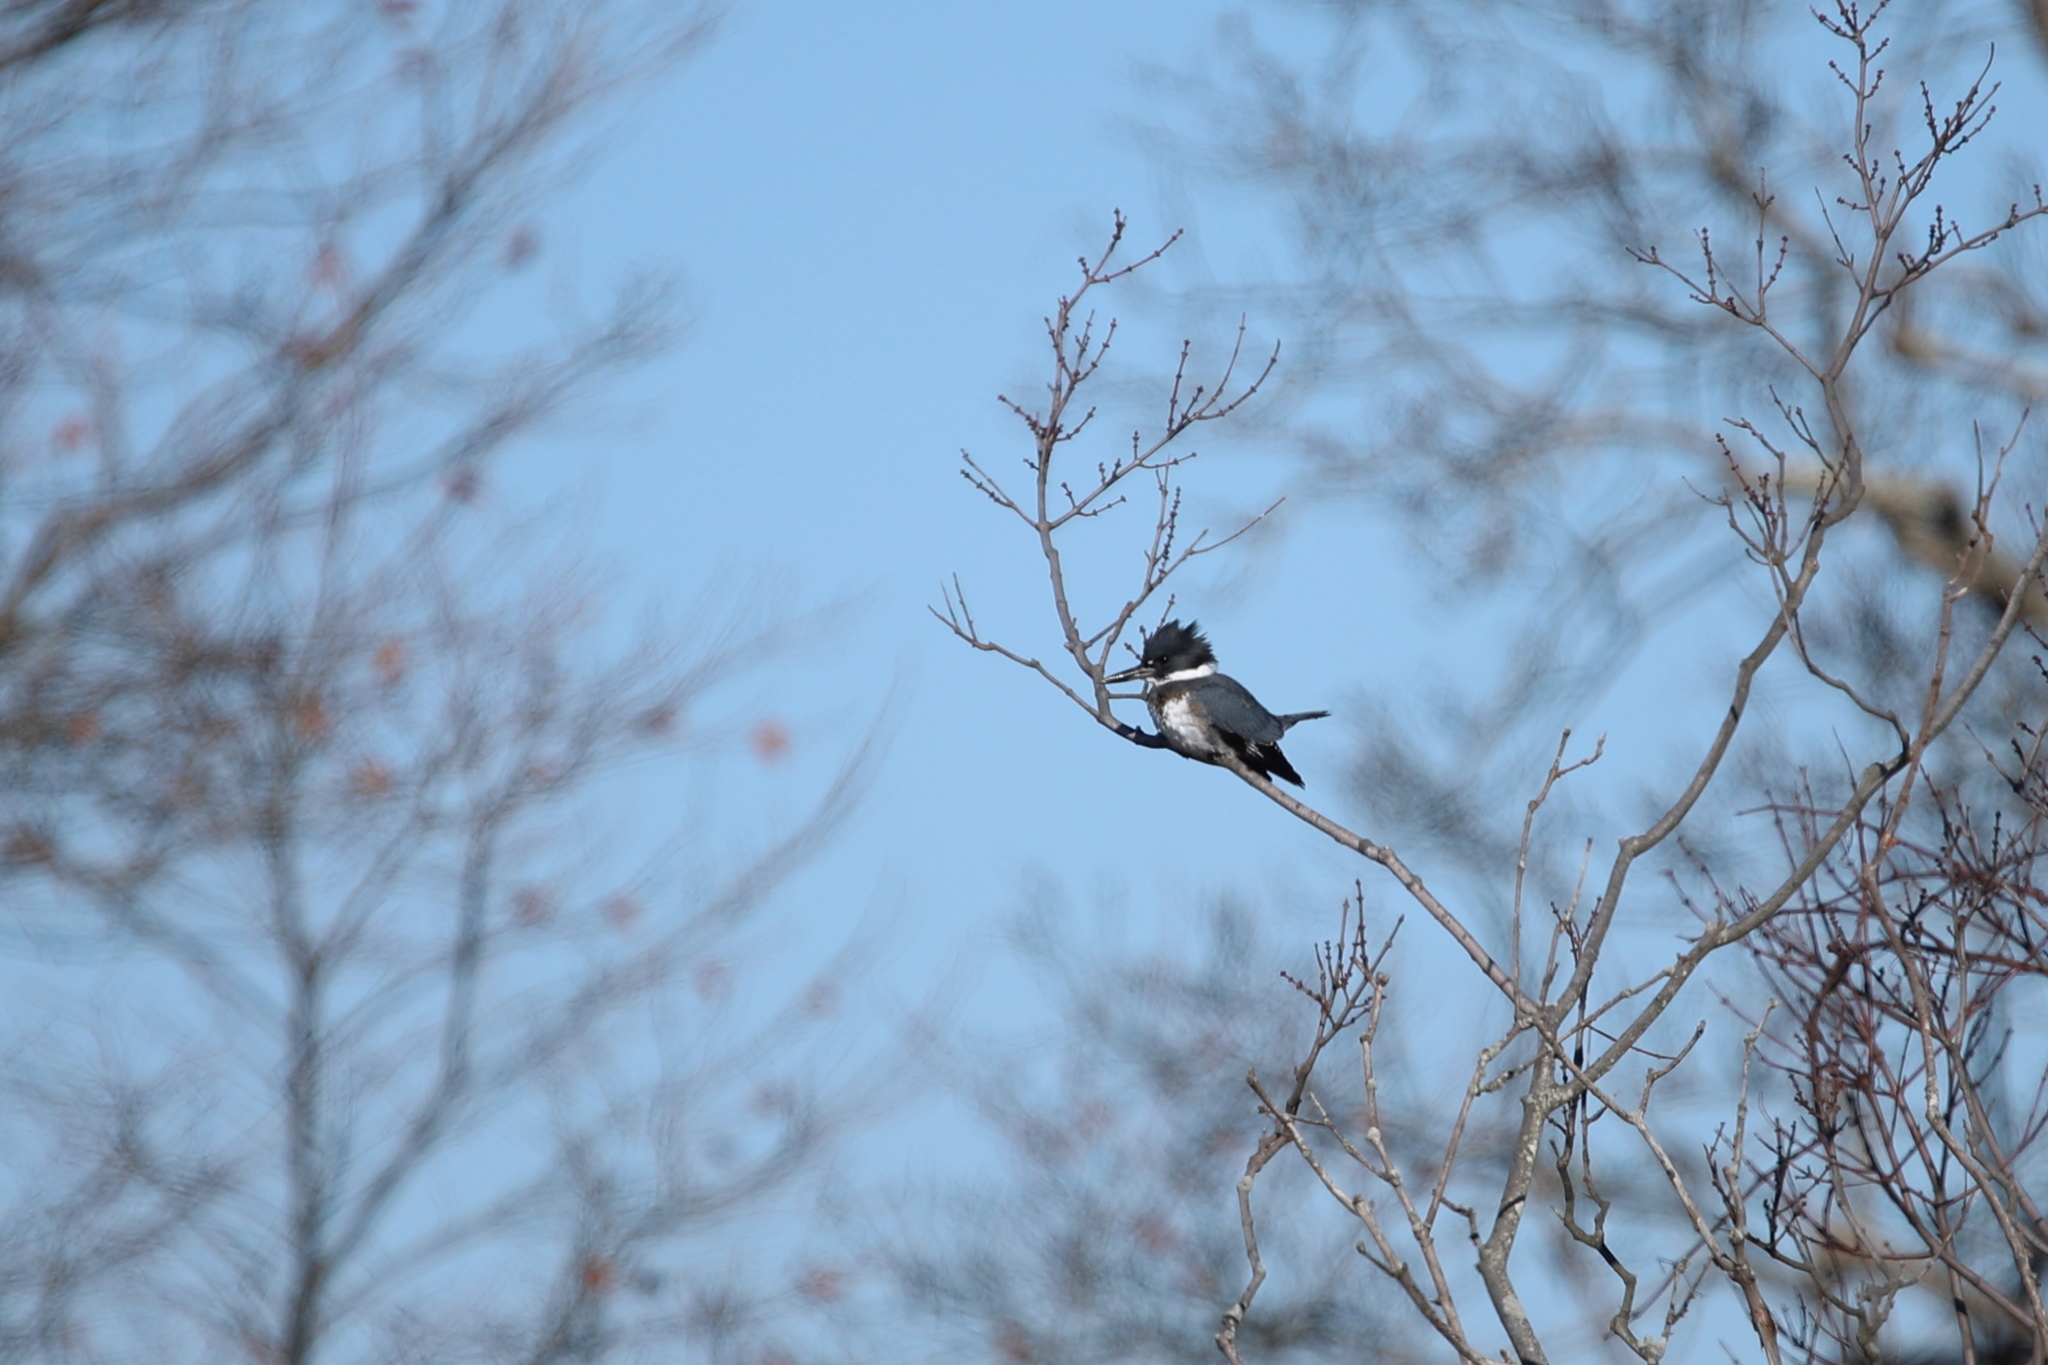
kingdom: Animalia
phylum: Chordata
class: Aves
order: Coraciiformes
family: Alcedinidae
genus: Megaceryle
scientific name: Megaceryle alcyon
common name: Belted kingfisher
